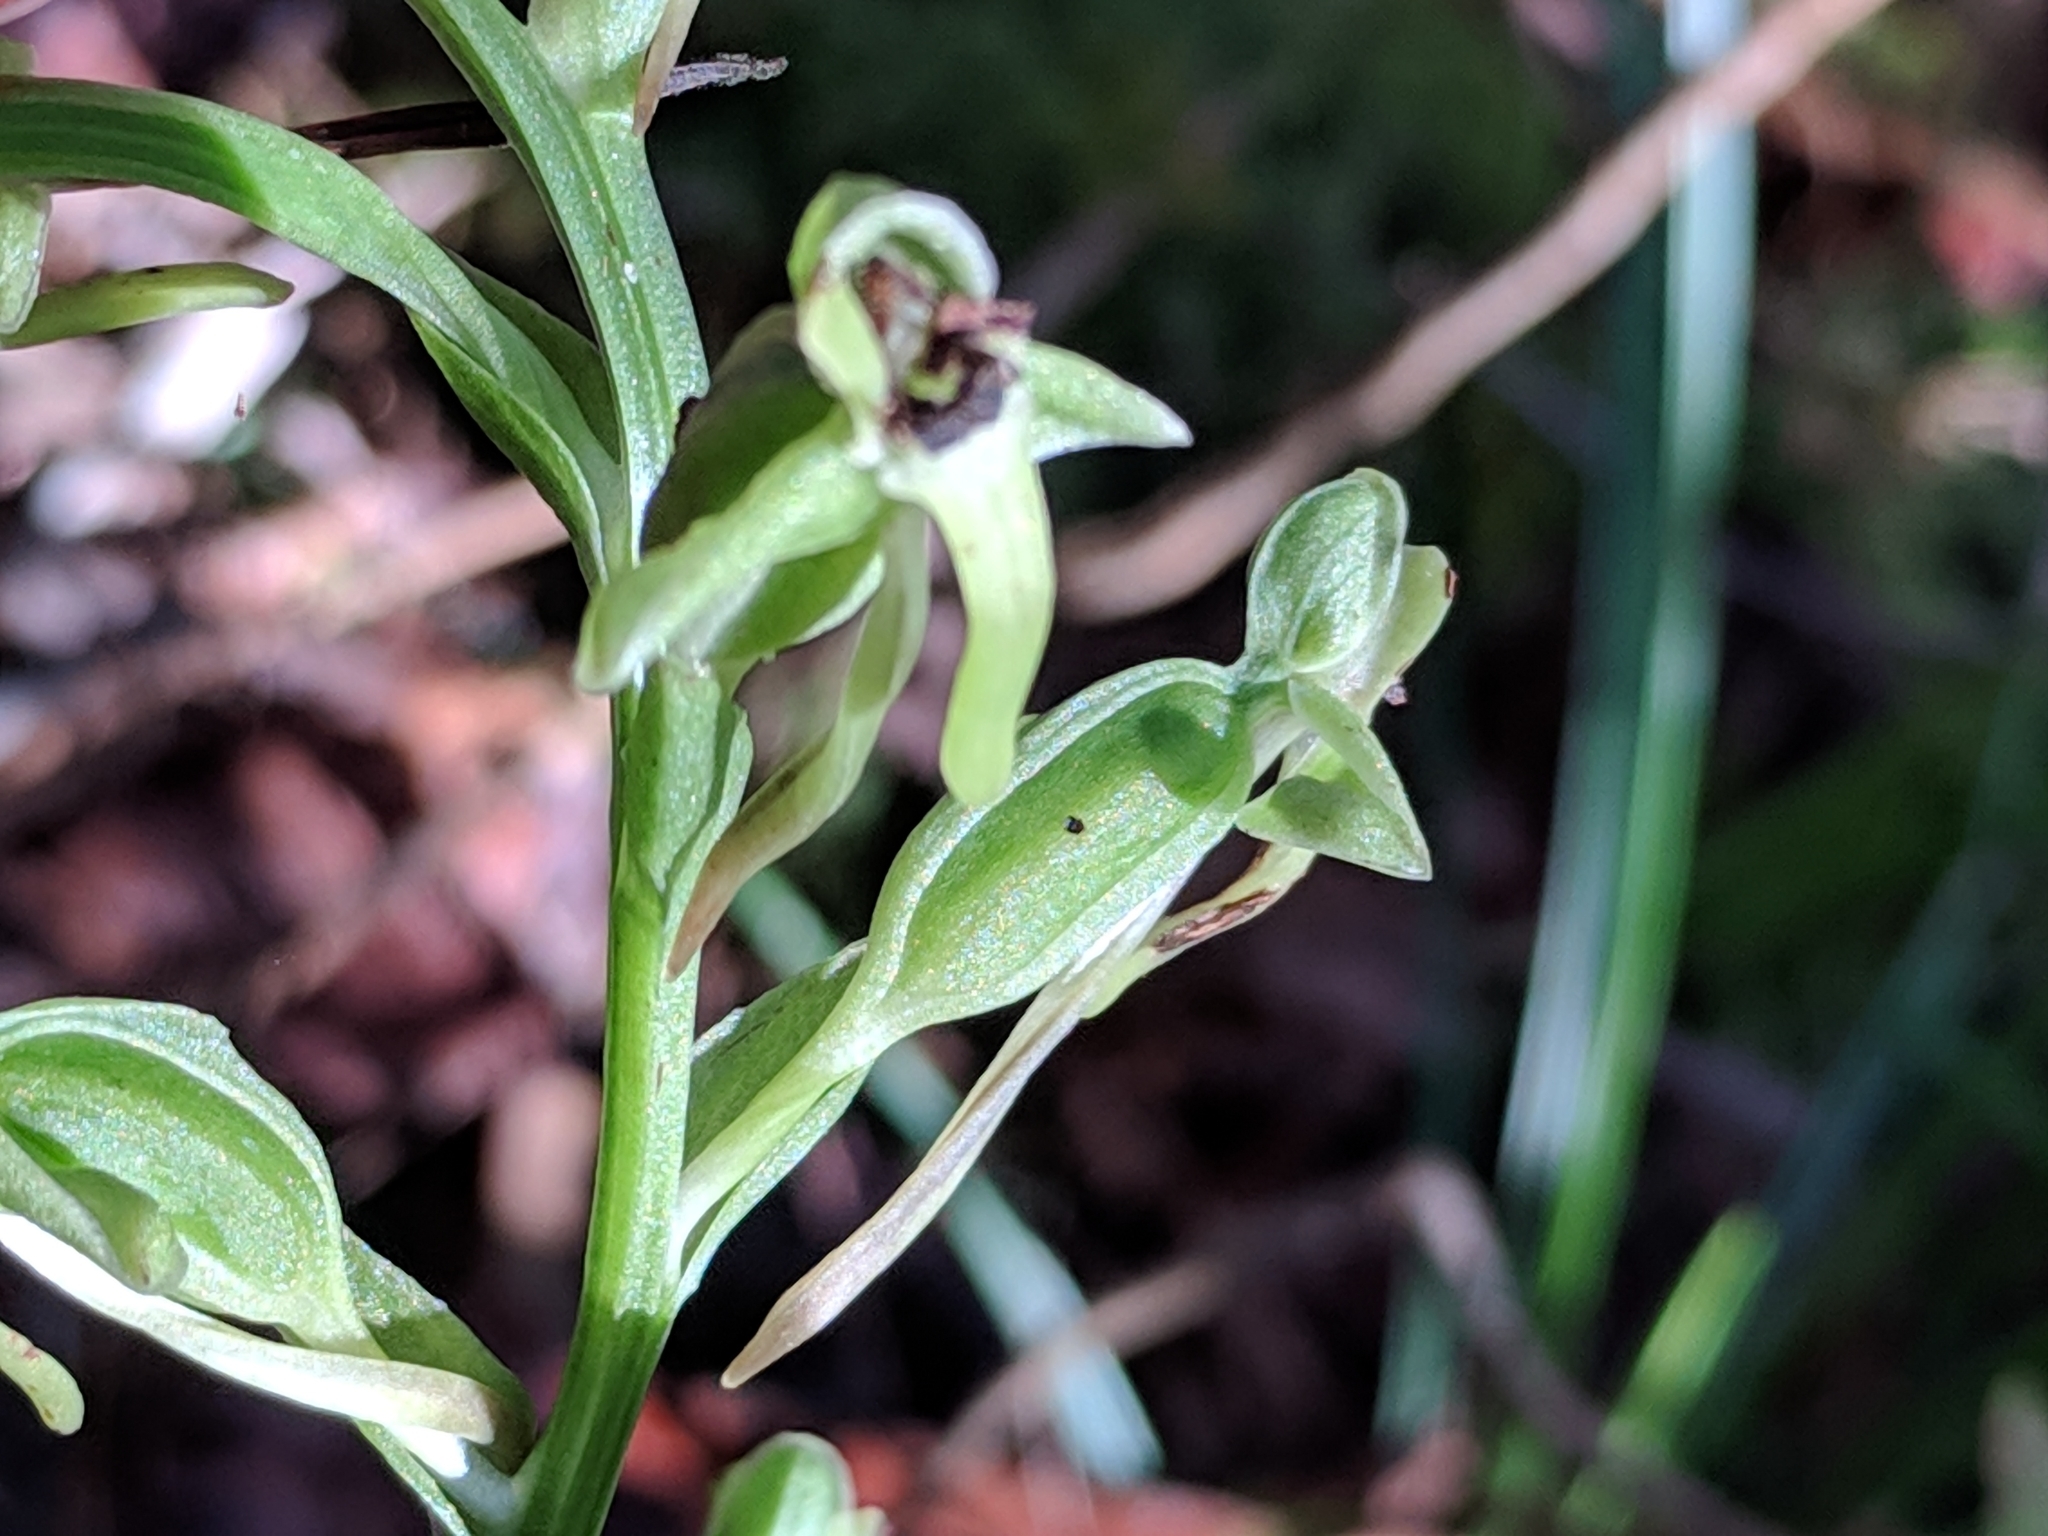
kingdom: Plantae
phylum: Tracheophyta
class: Liliopsida
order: Asparagales
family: Orchidaceae
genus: Habenaria
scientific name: Habenaria floribunda
